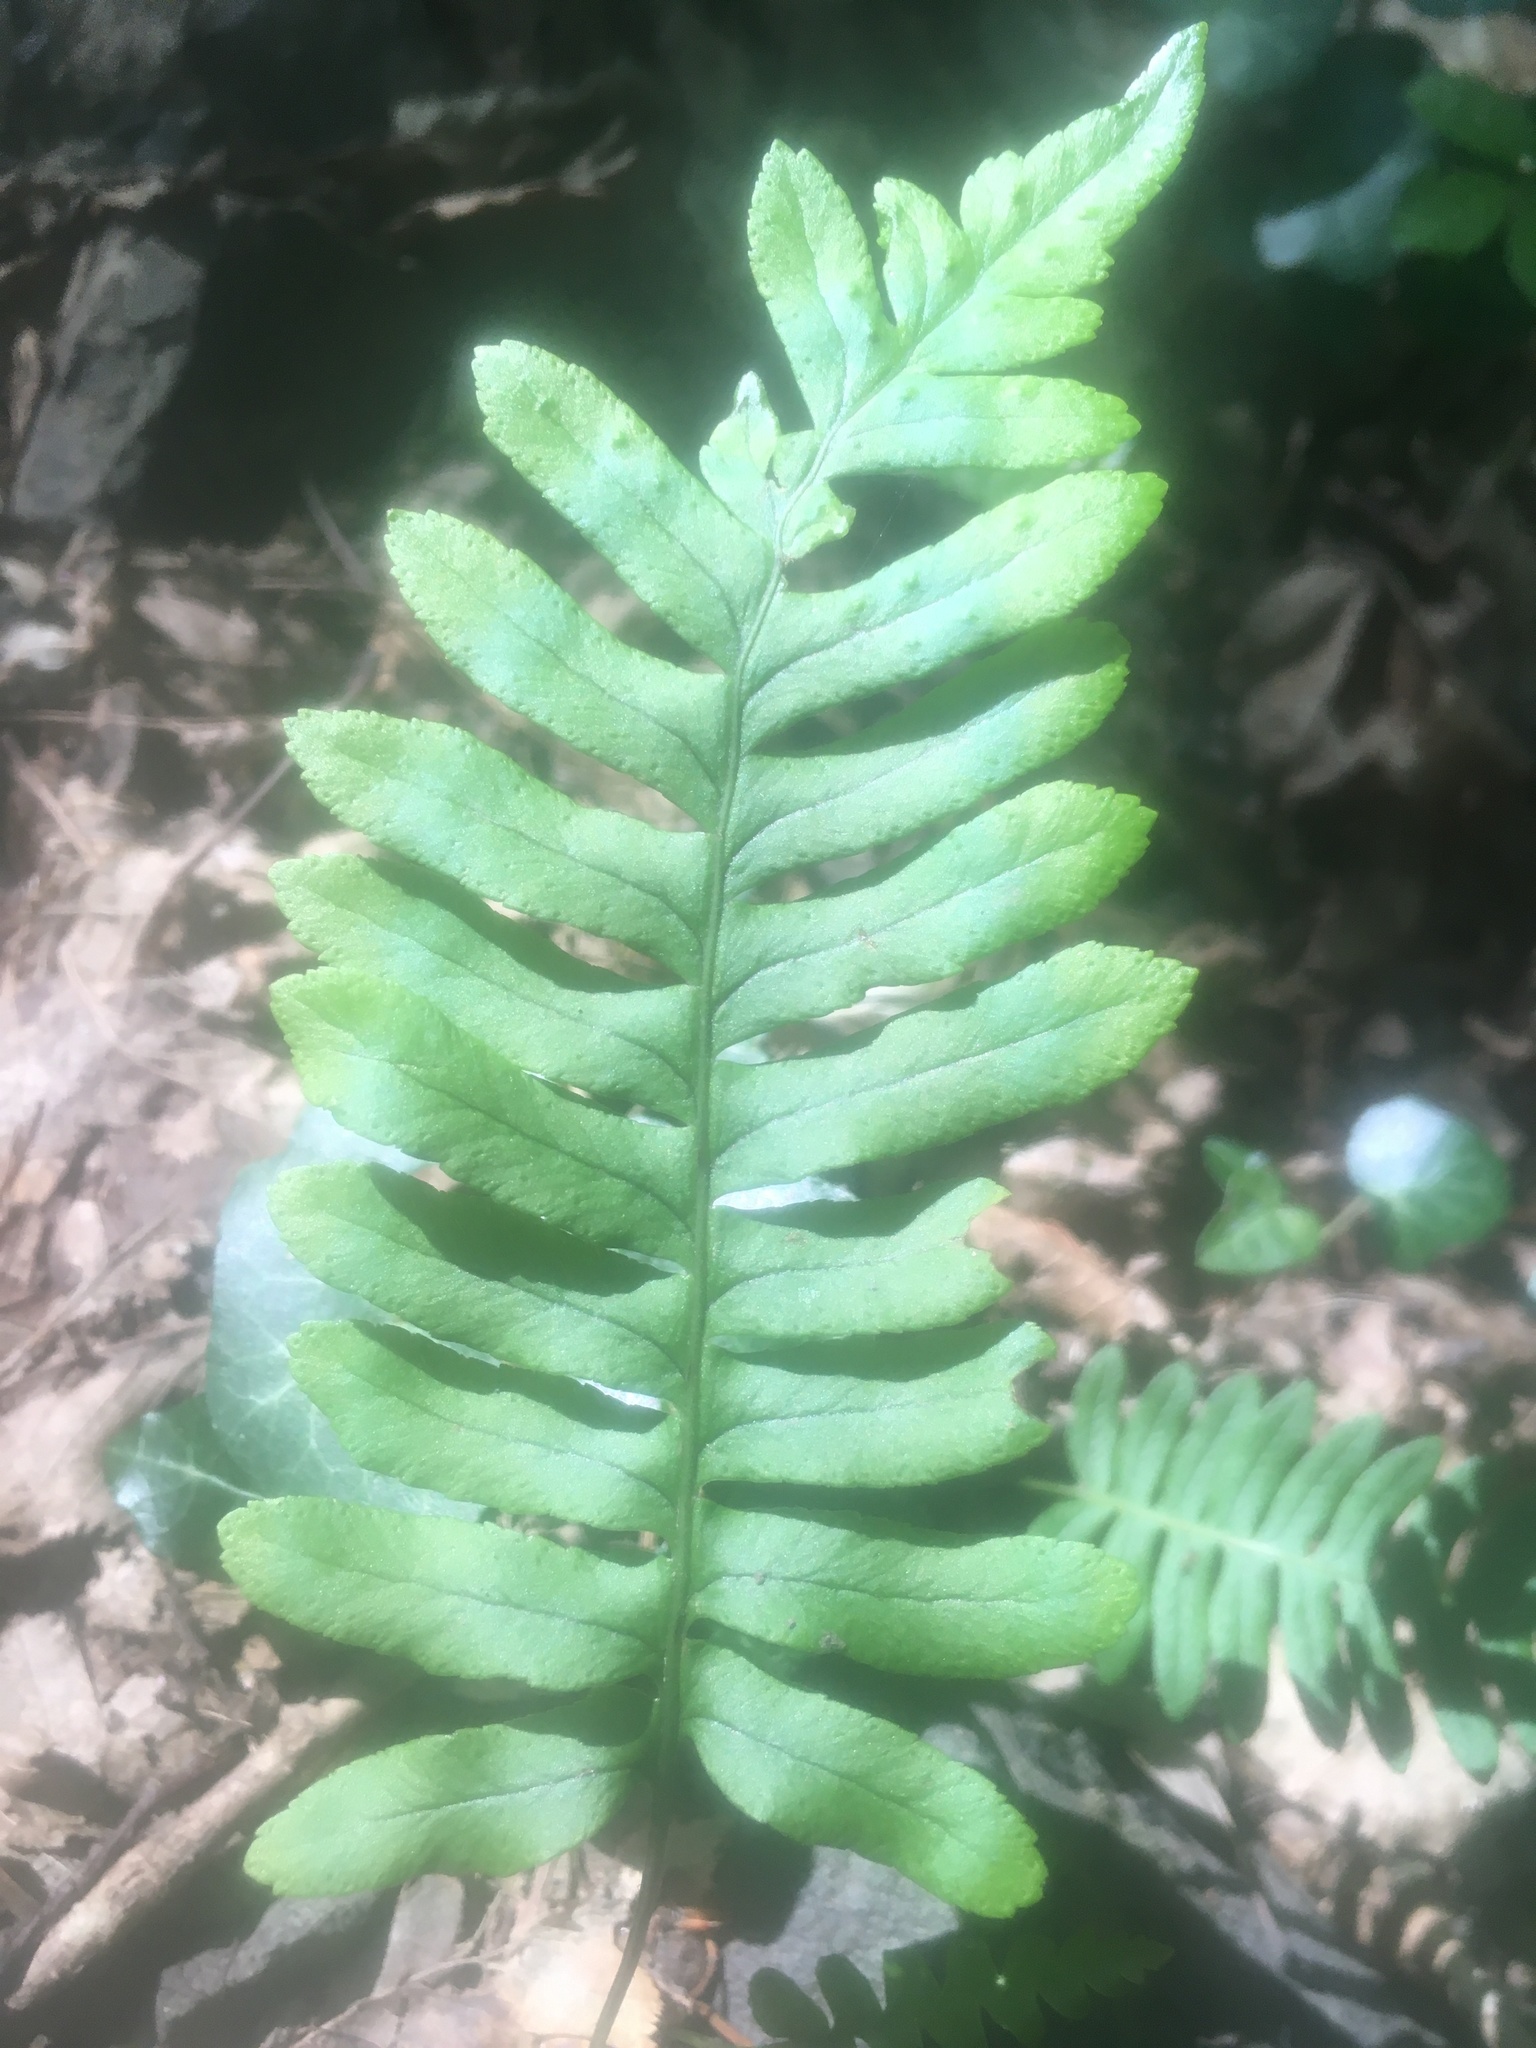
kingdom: Plantae
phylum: Tracheophyta
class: Polypodiopsida
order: Polypodiales
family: Polypodiaceae
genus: Polypodium
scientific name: Polypodium vulgare
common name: Common polypody
